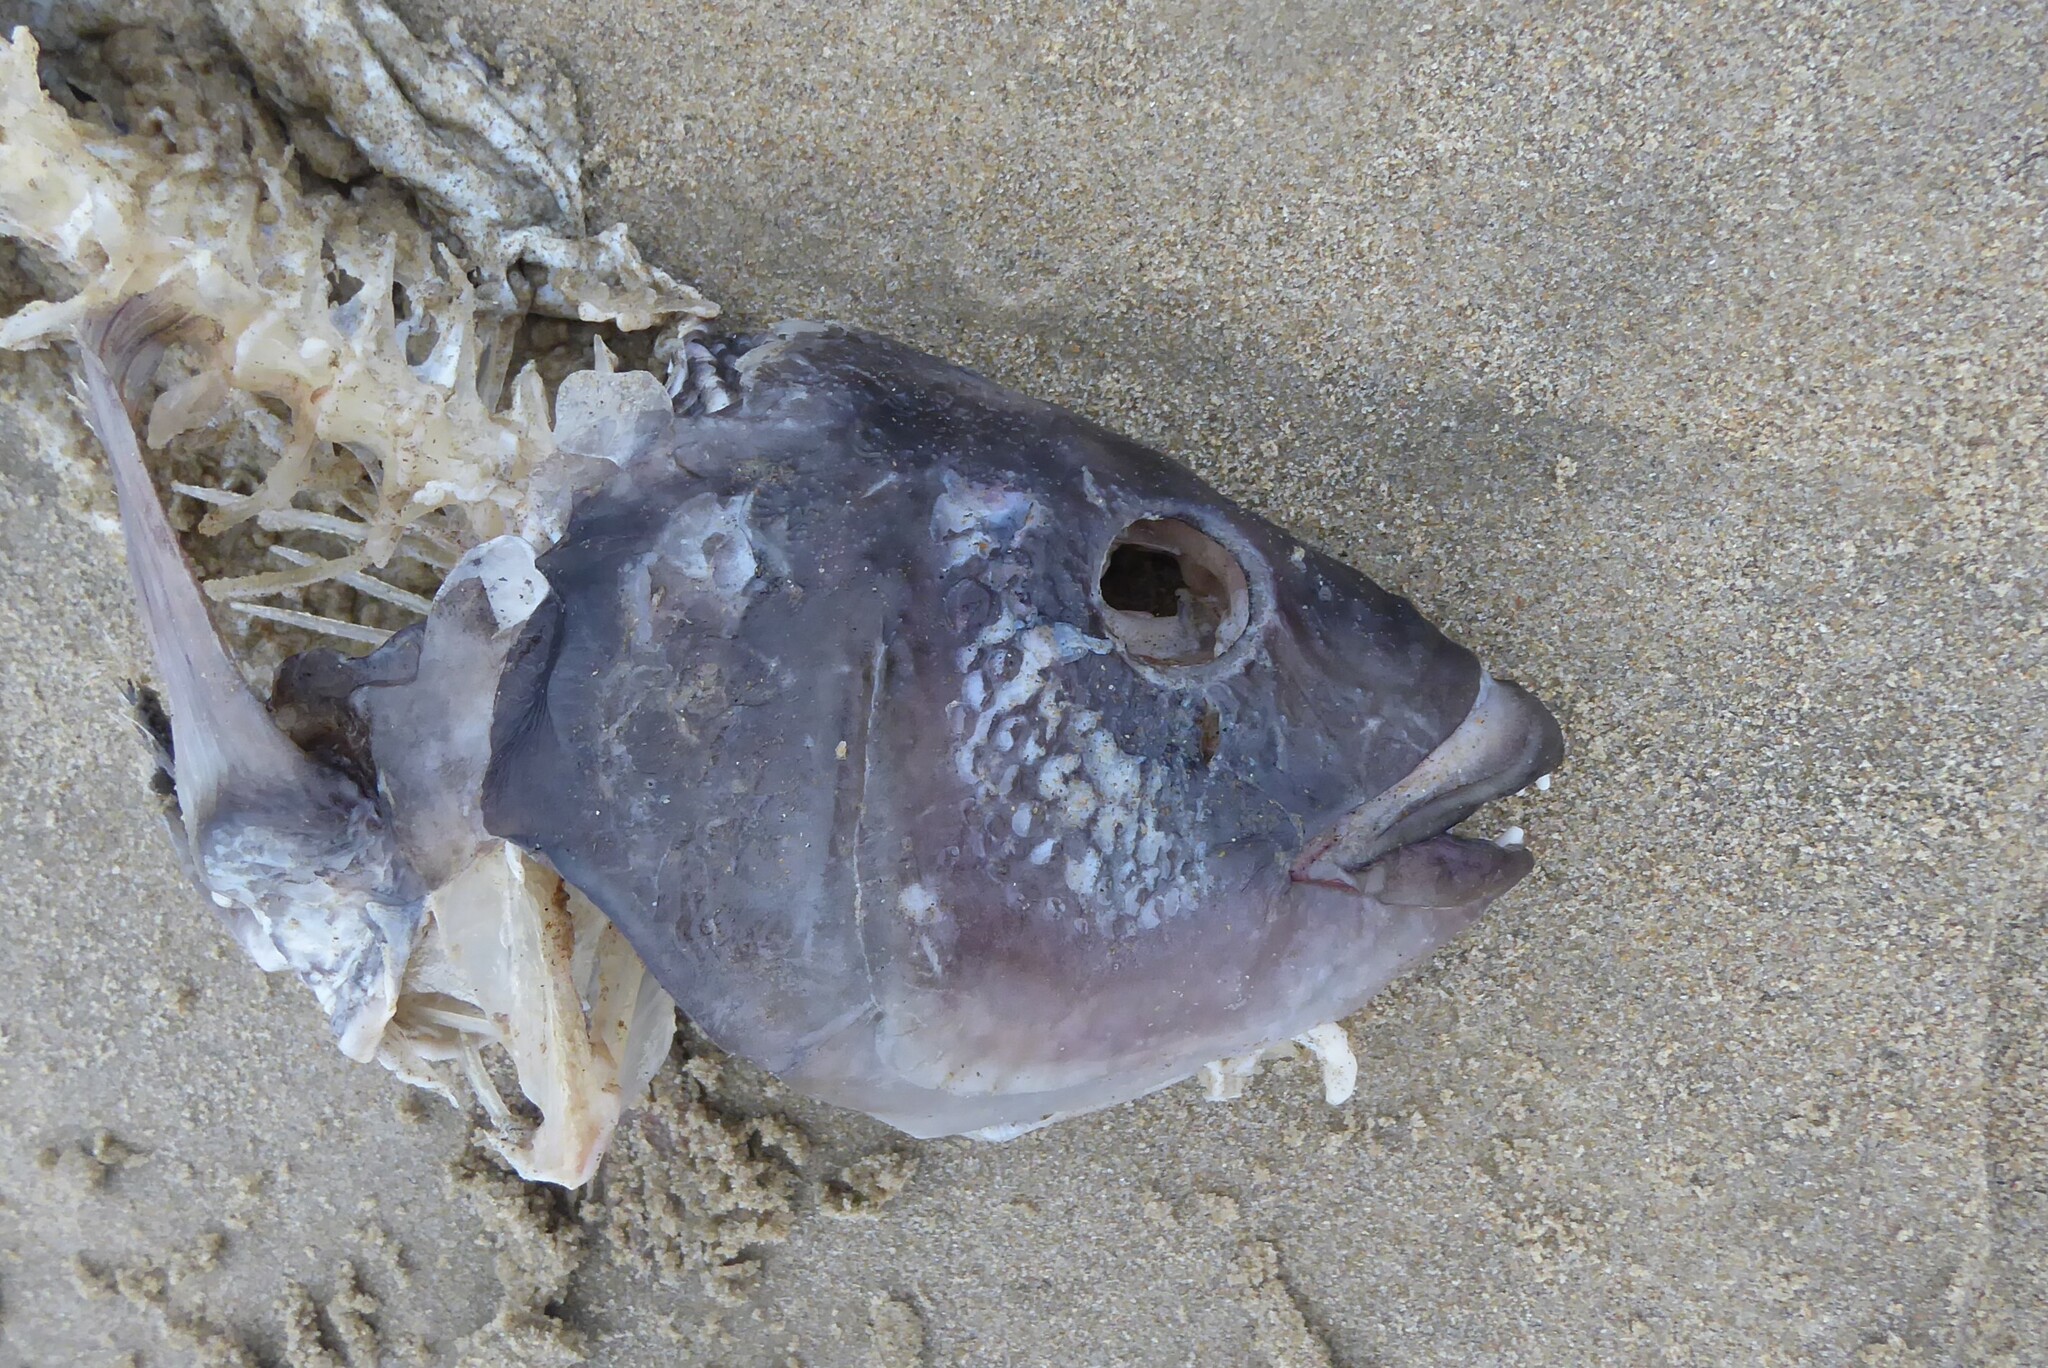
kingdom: Animalia
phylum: Chordata
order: Perciformes
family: Labridae
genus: Notolabrus
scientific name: Notolabrus fucicola
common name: Banded parrotfish
